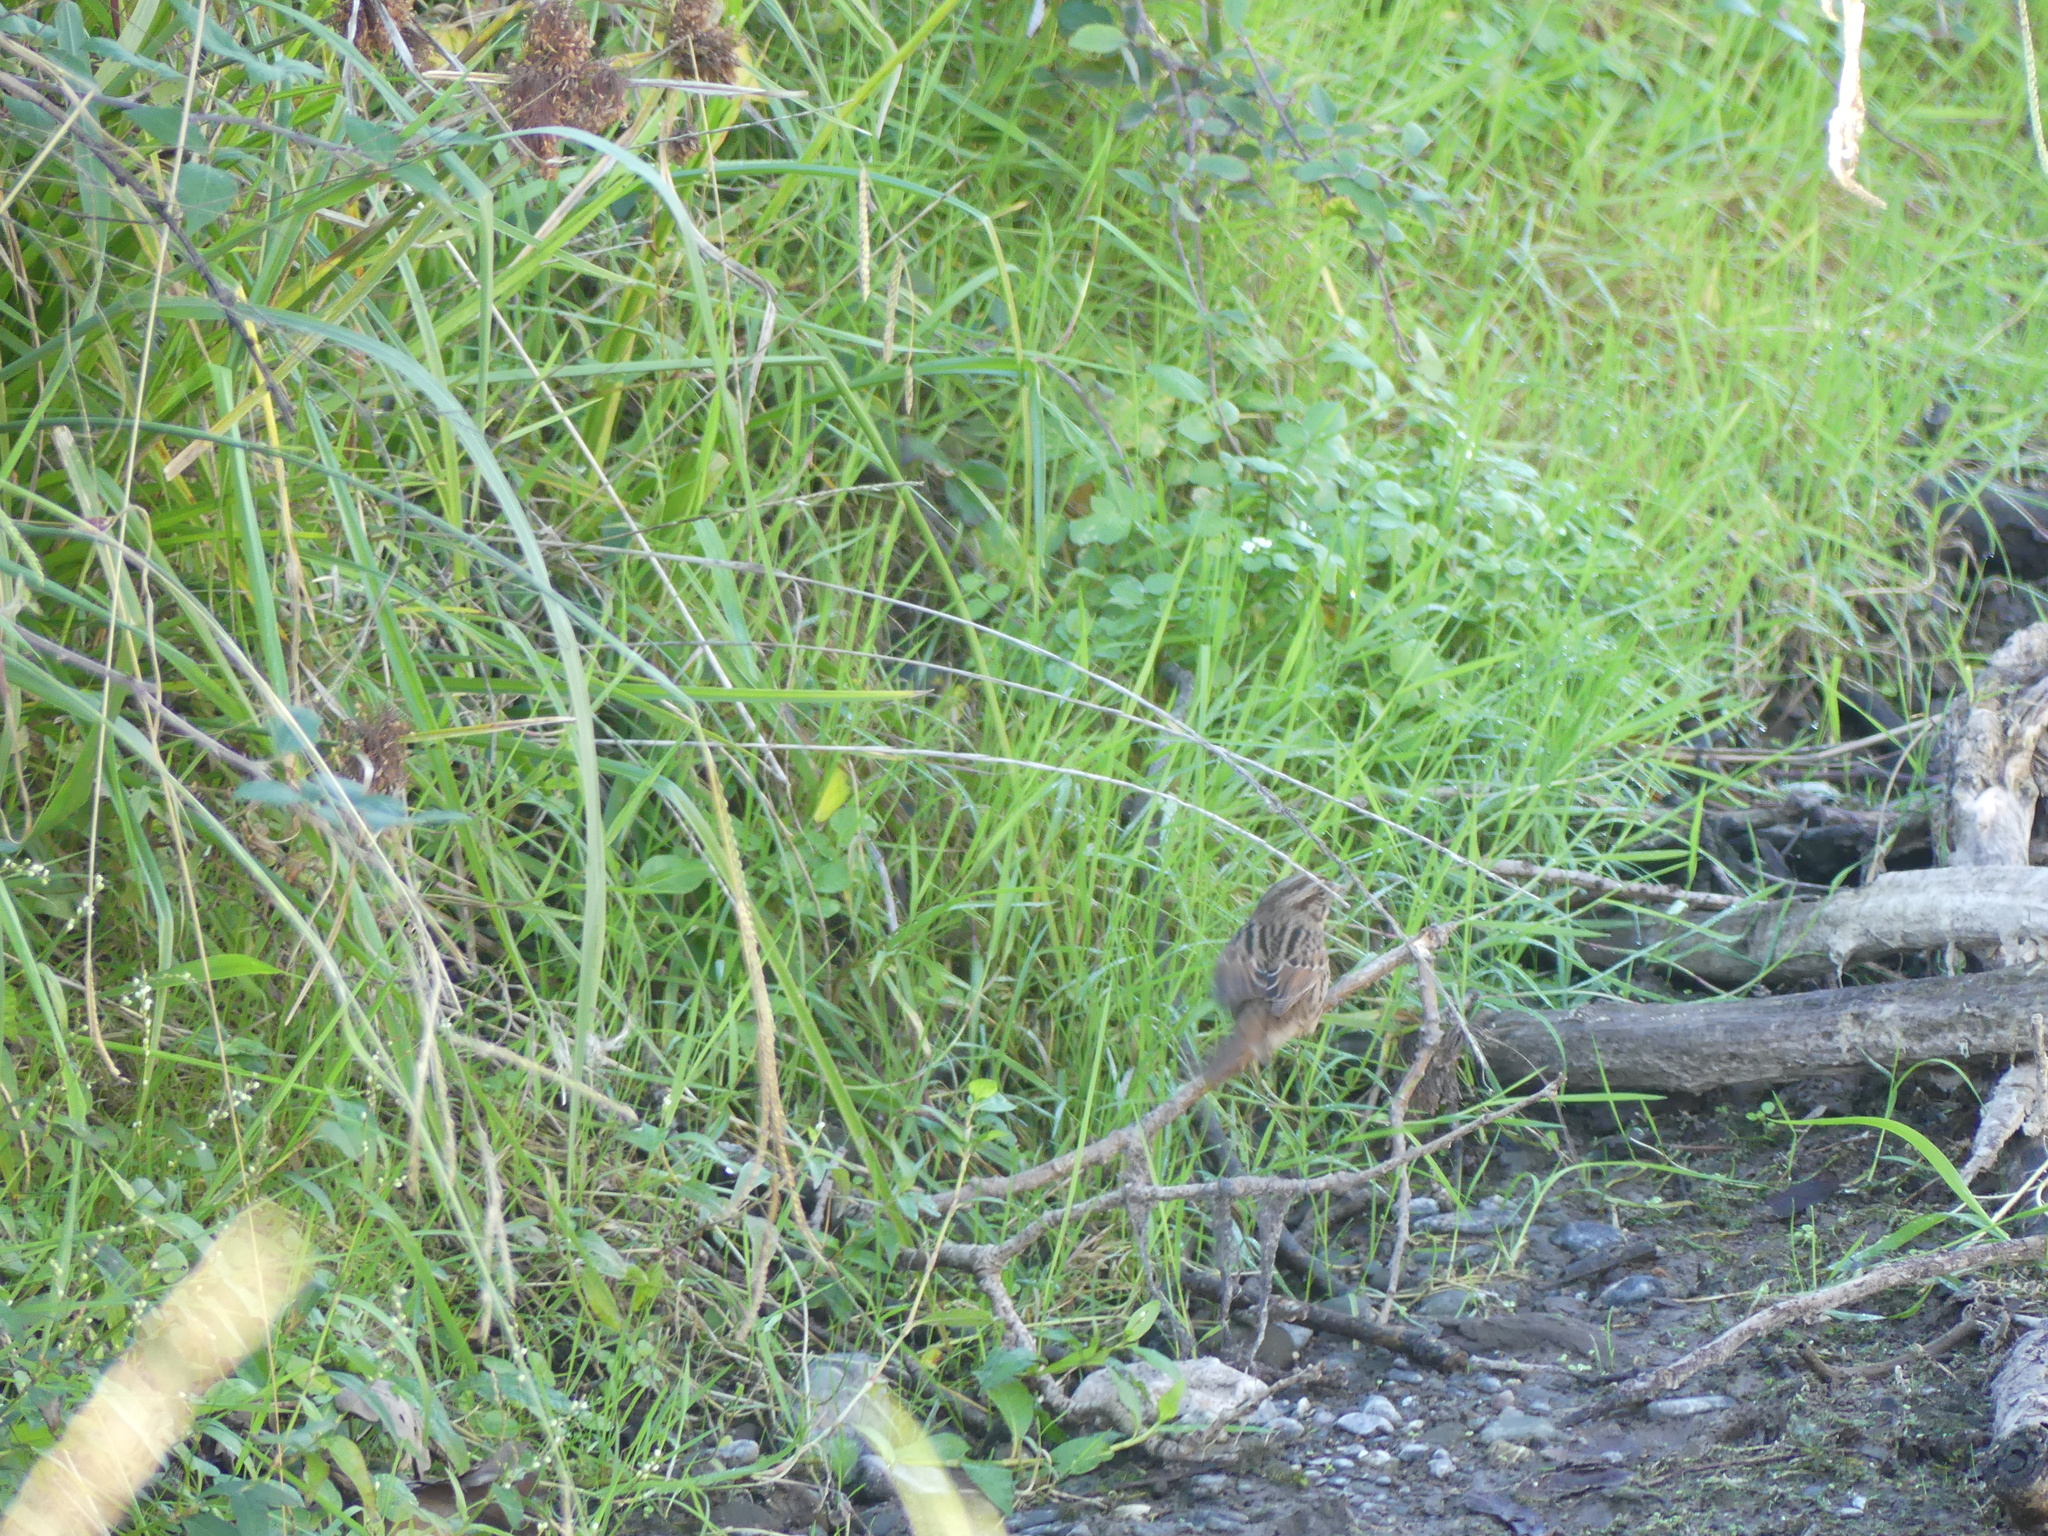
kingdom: Animalia
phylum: Chordata
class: Aves
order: Passeriformes
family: Passerellidae
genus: Melospiza
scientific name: Melospiza melodia
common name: Song sparrow
